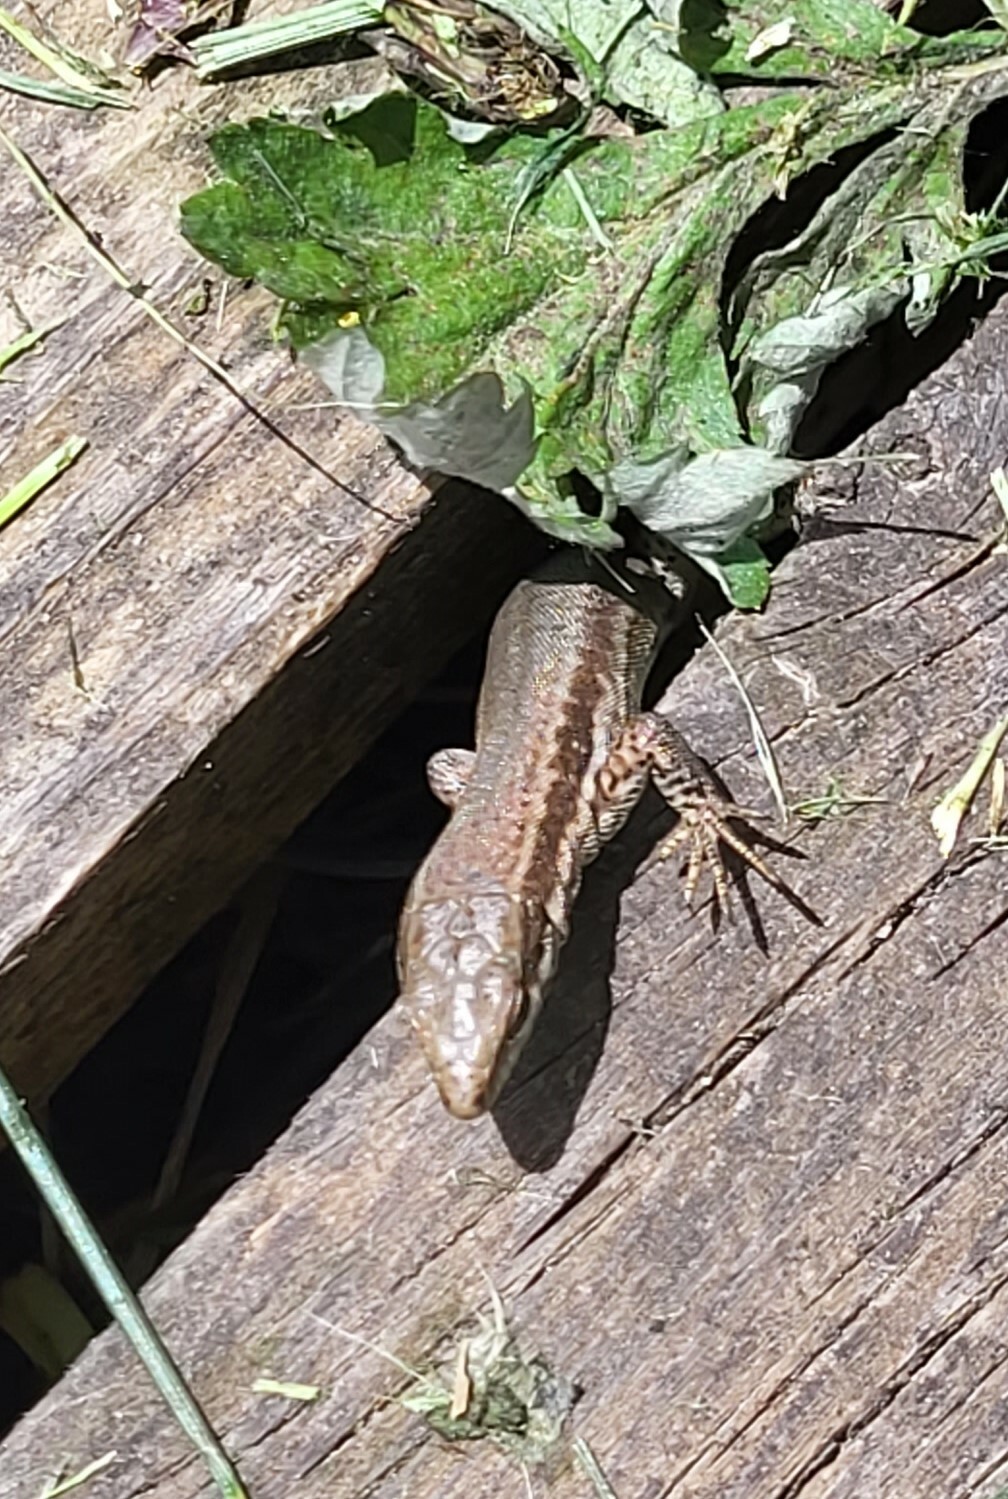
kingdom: Animalia
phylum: Chordata
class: Squamata
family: Lacertidae
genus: Podarcis
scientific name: Podarcis muralis
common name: Common wall lizard
